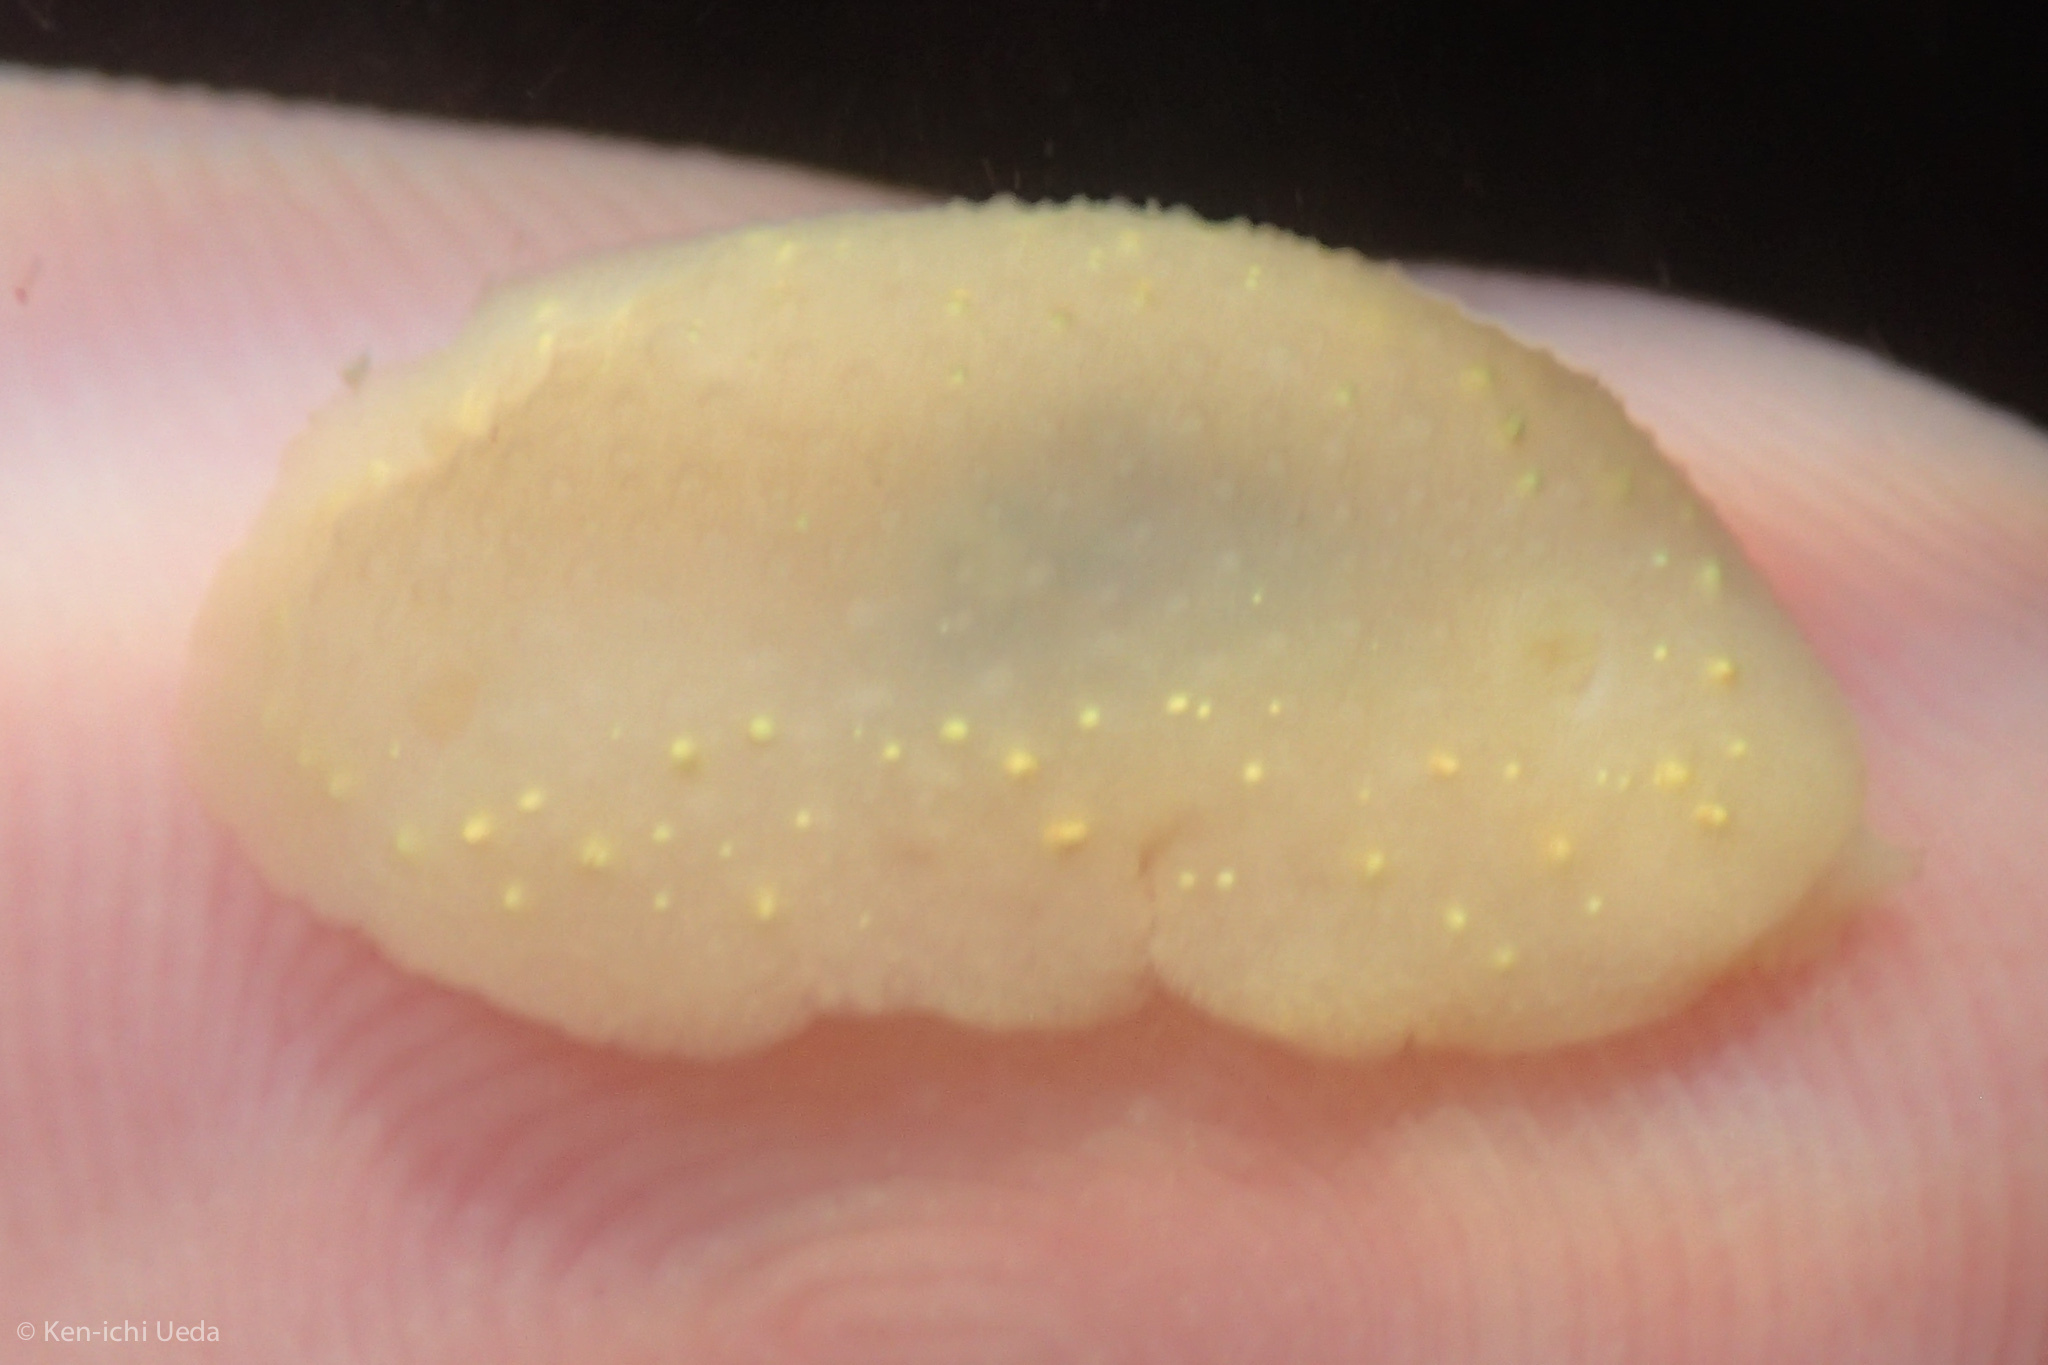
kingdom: Animalia
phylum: Mollusca
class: Gastropoda
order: Nudibranchia
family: Cadlinidae
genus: Cadlina
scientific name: Cadlina modesta
